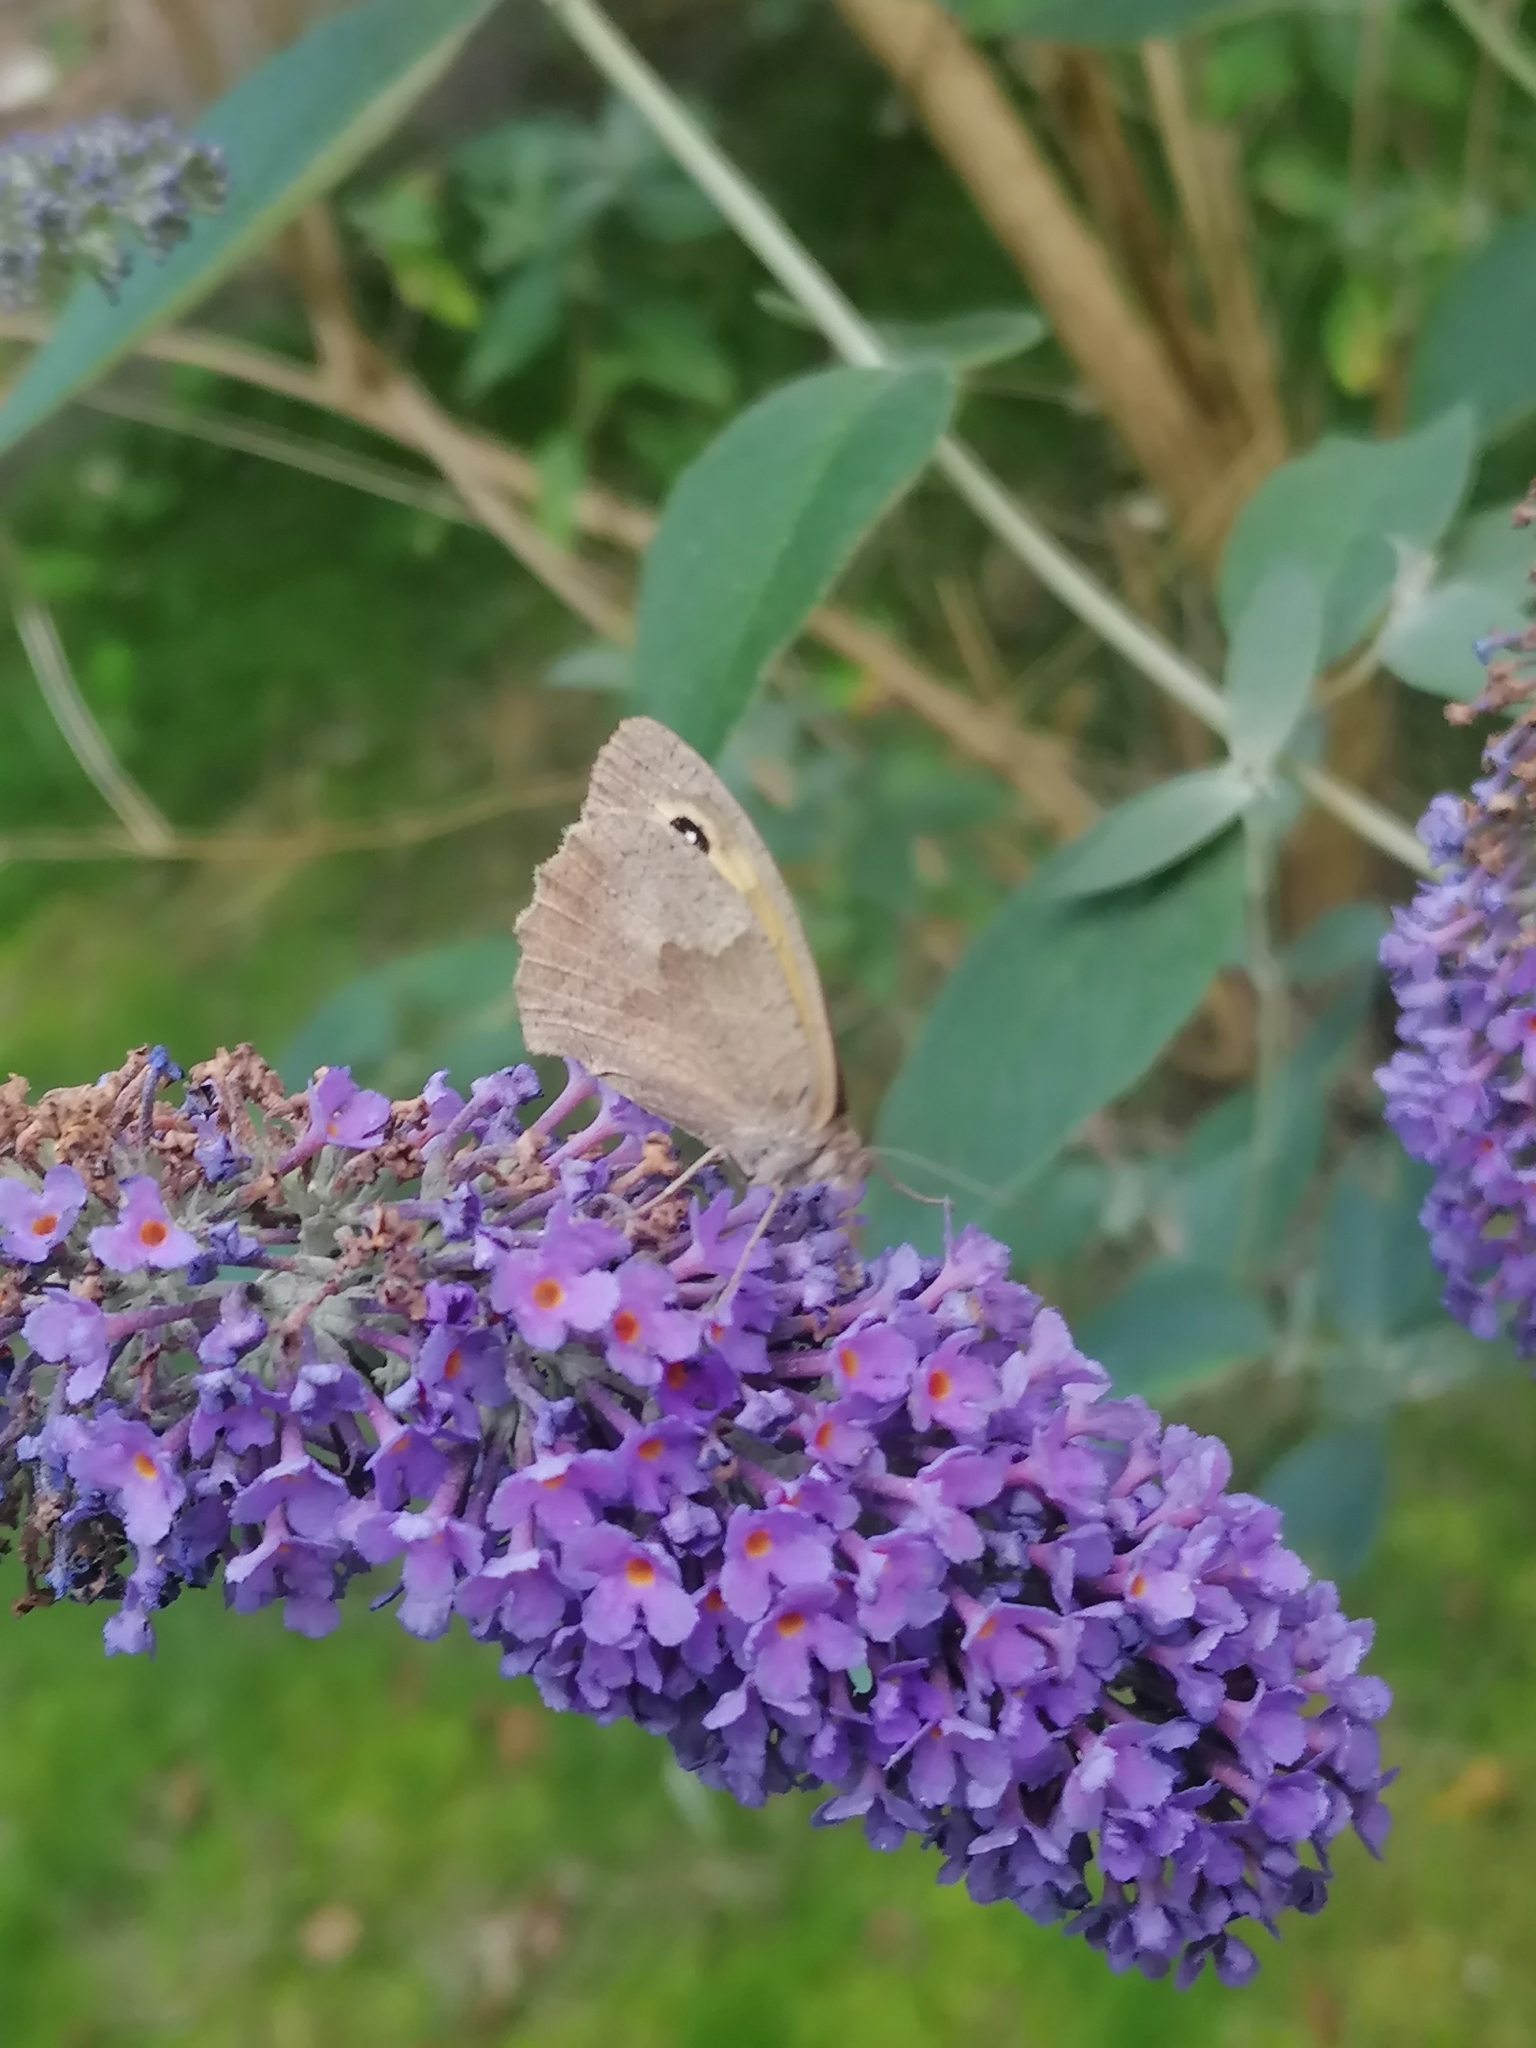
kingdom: Animalia
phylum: Arthropoda
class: Insecta
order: Lepidoptera
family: Nymphalidae
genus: Maniola
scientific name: Maniola jurtina
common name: Meadow brown
